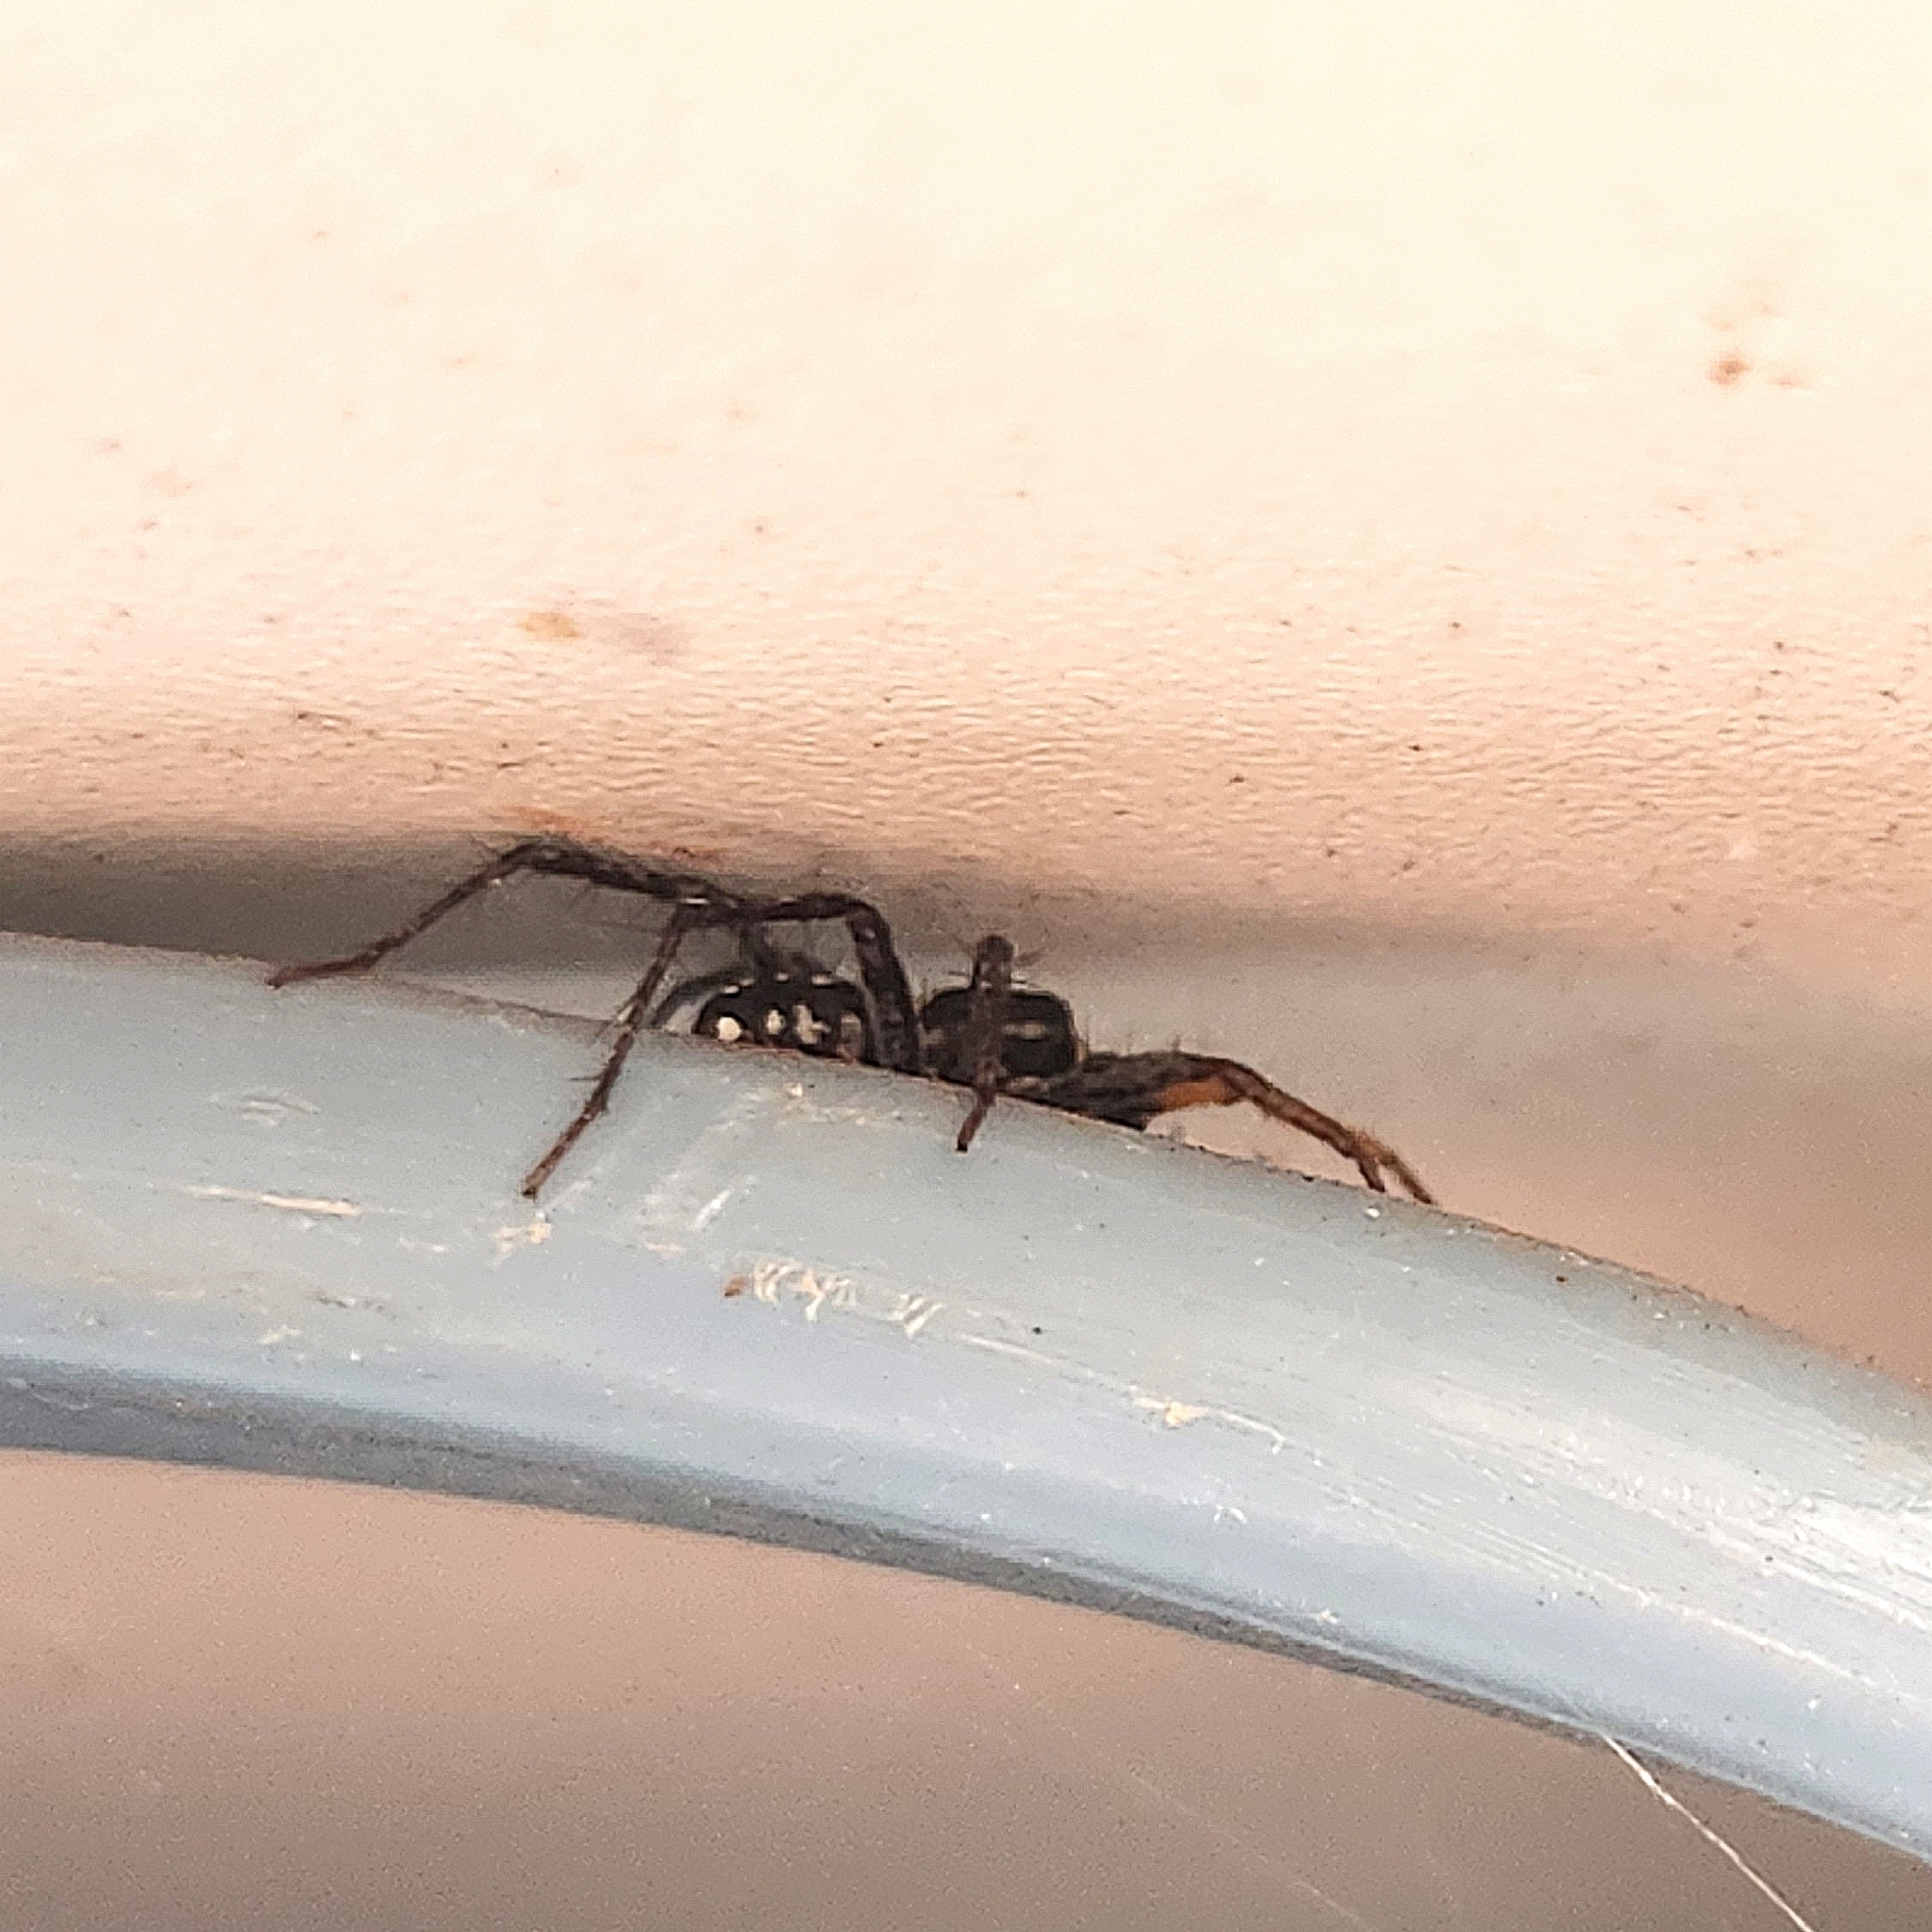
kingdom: Animalia
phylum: Arthropoda
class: Arachnida
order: Araneae
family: Corinnidae
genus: Nyssus
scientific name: Nyssus coloripes
